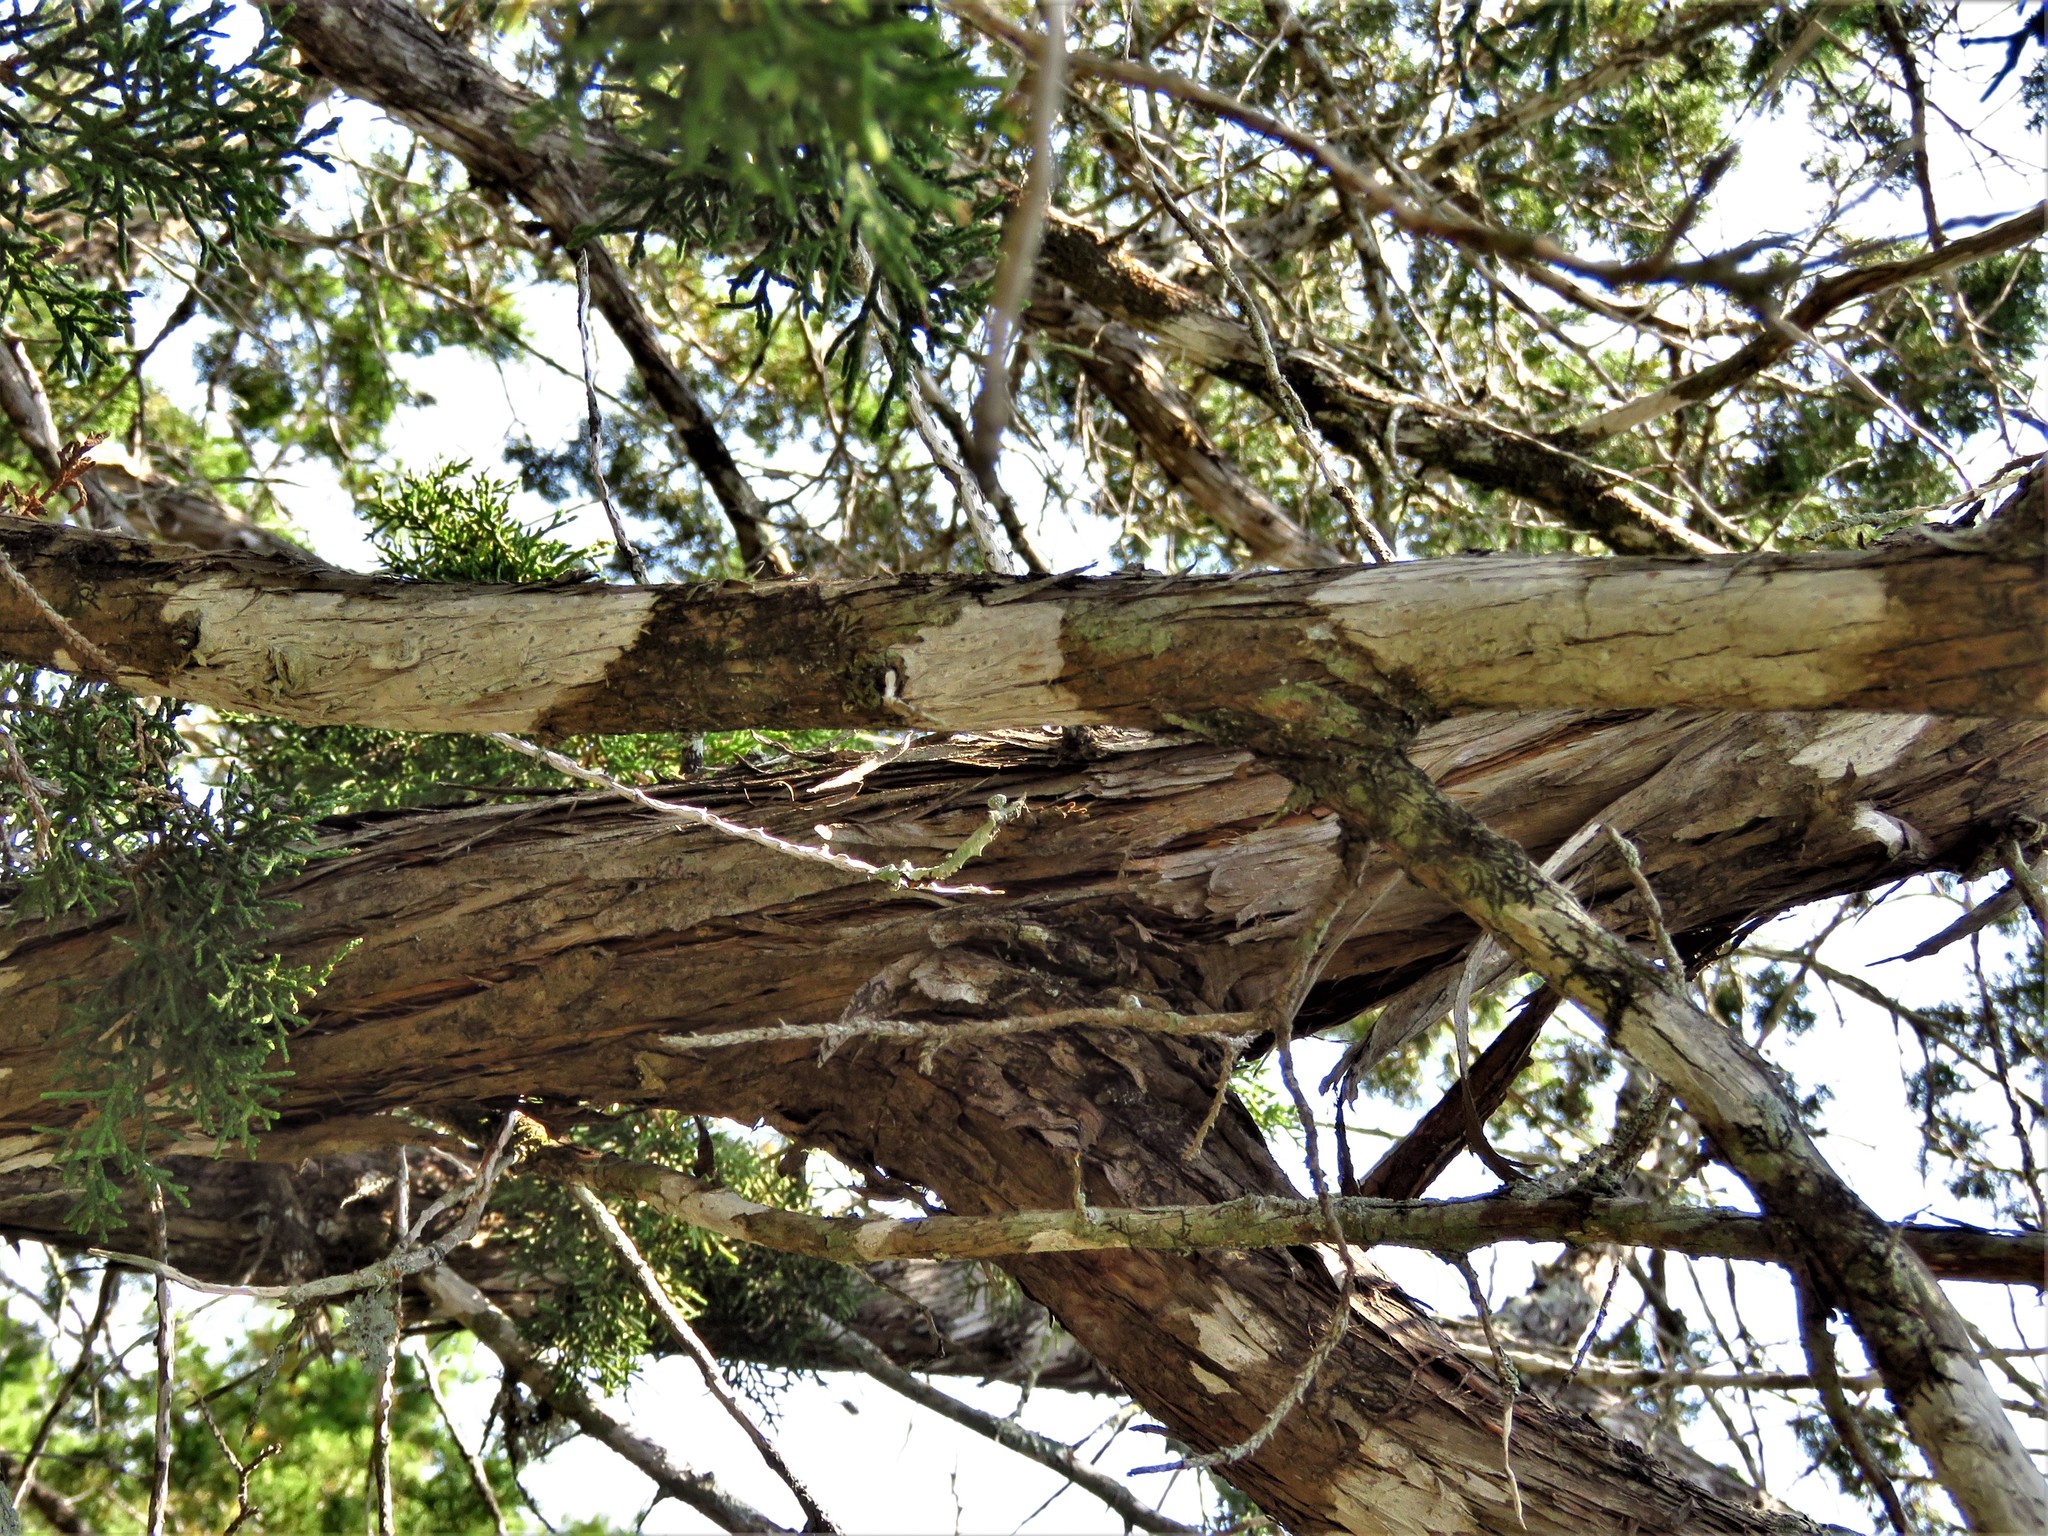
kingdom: Fungi
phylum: Ascomycota
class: Lecanoromycetes
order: Ostropales
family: Stictidaceae
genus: Robergea
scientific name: Robergea
